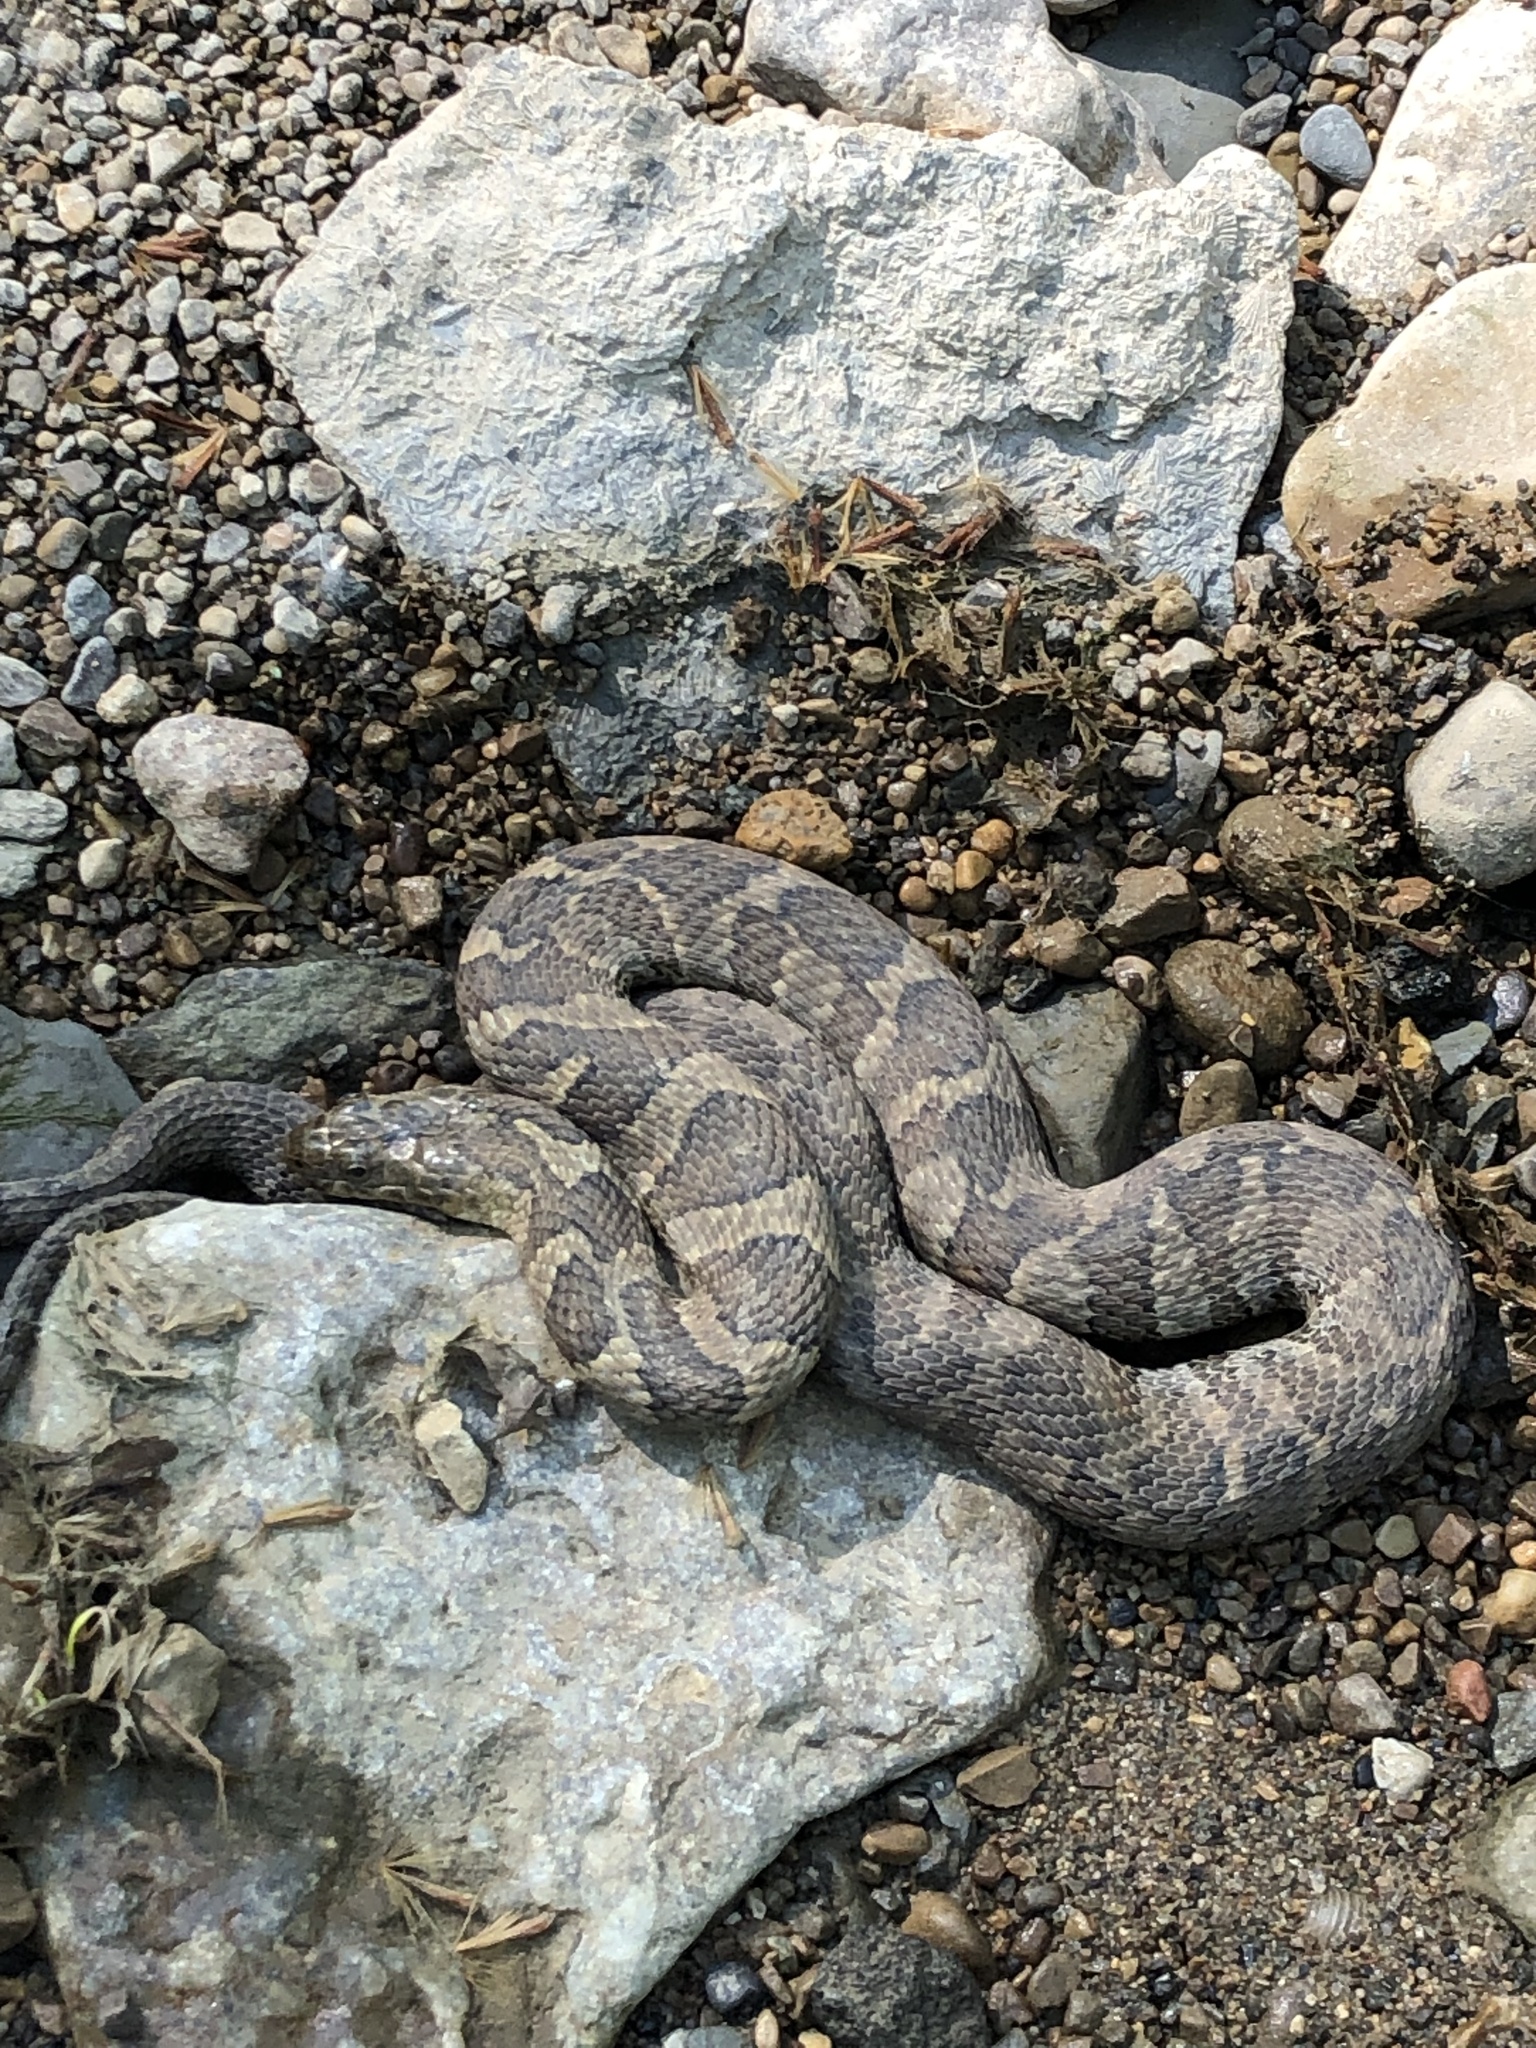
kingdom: Animalia
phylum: Chordata
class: Squamata
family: Colubridae
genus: Nerodia
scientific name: Nerodia sipedon
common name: Northern water snake
